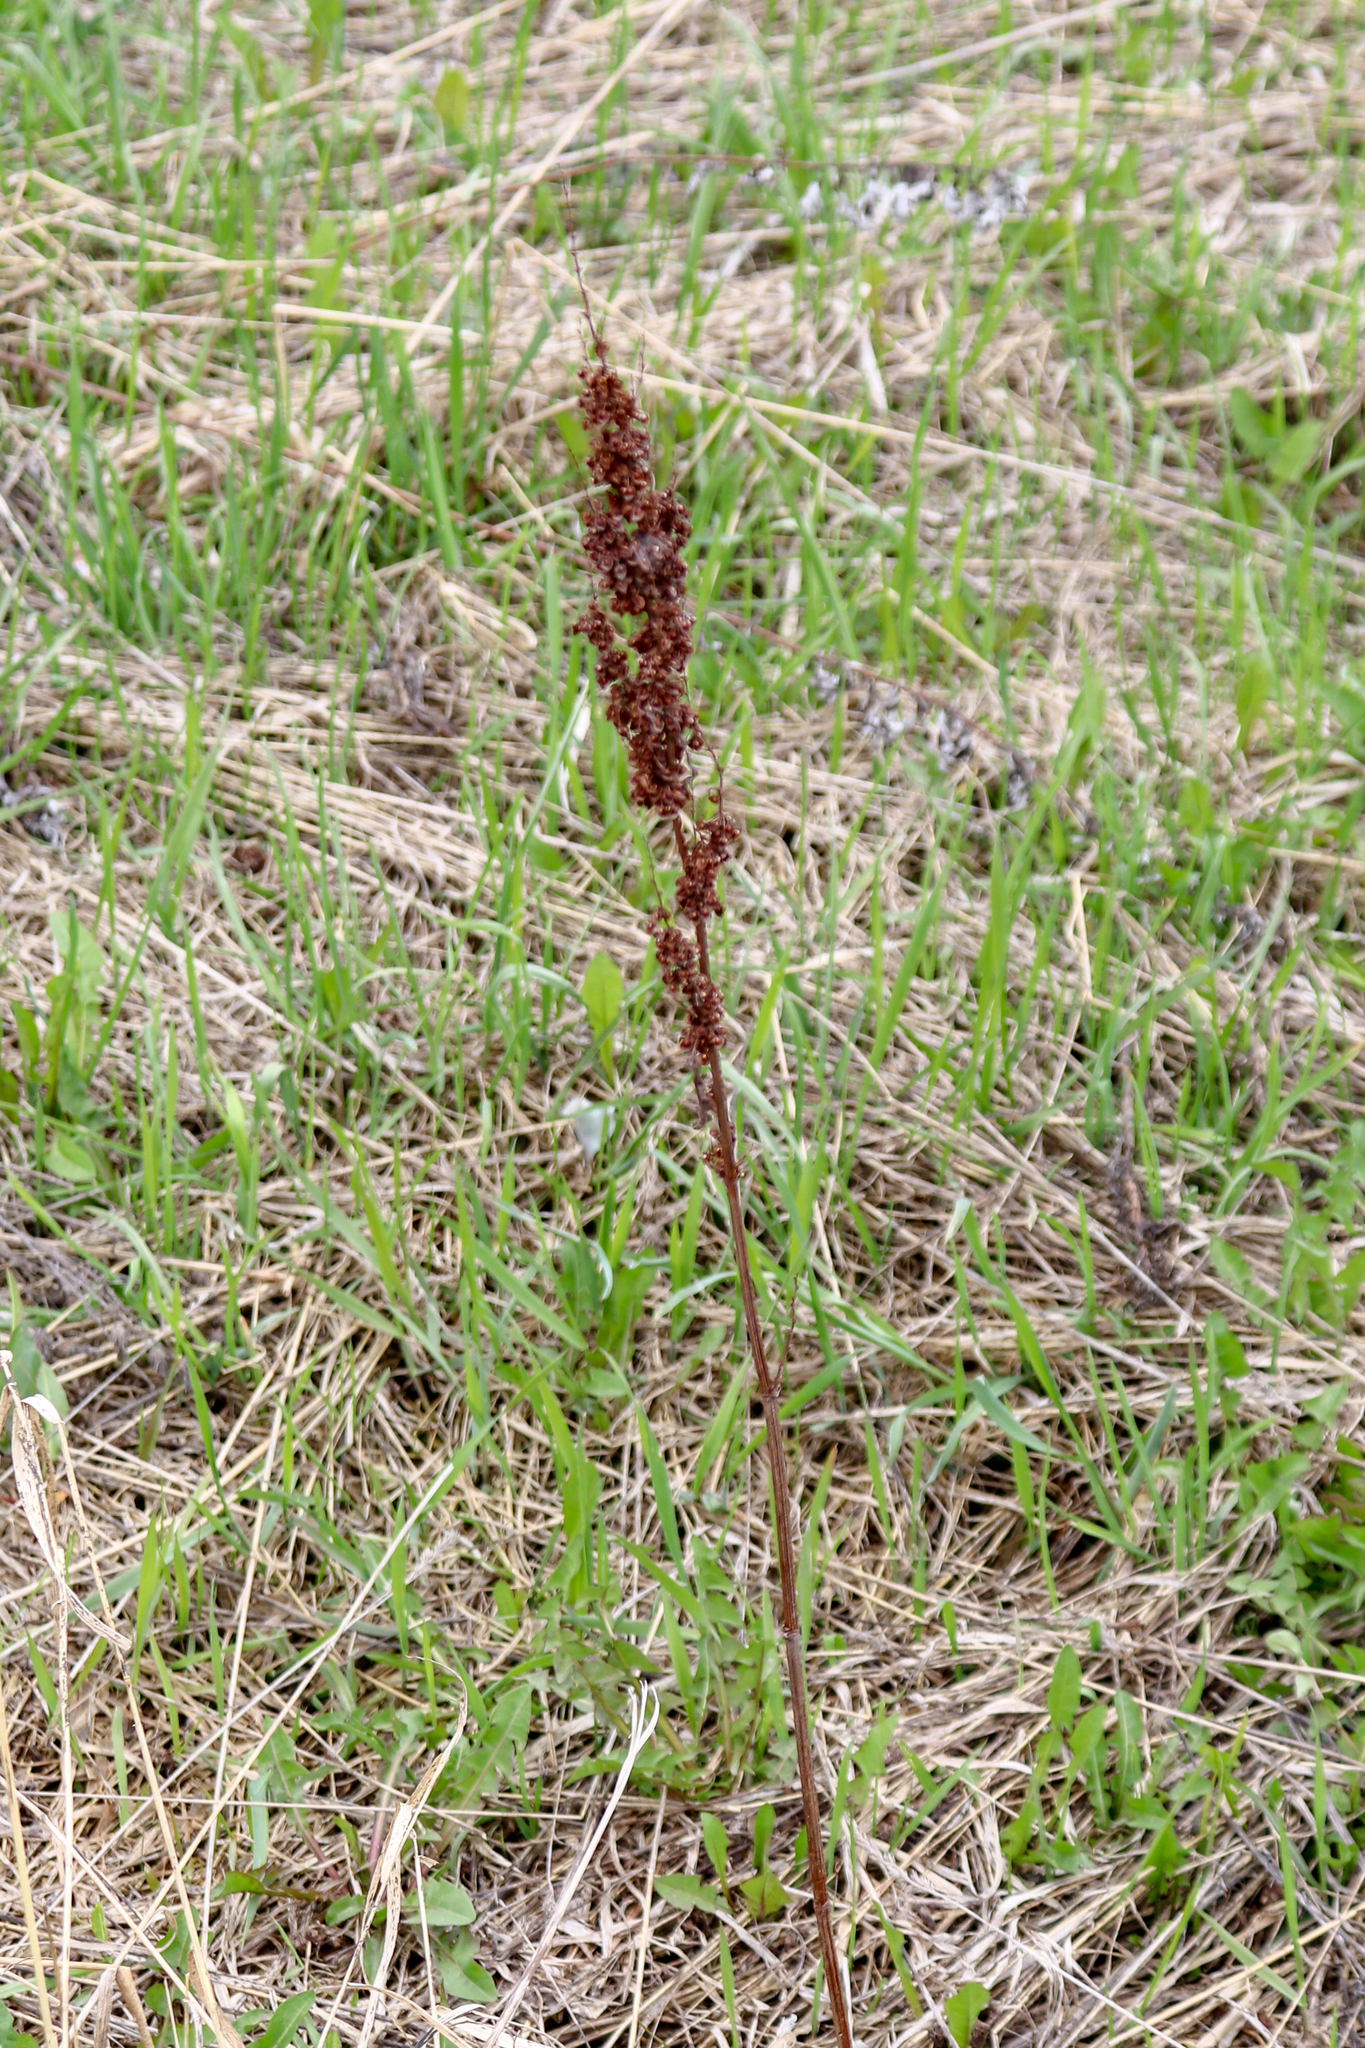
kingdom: Plantae
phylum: Tracheophyta
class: Magnoliopsida
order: Caryophyllales
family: Polygonaceae
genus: Rumex
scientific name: Rumex crispus
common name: Curled dock
